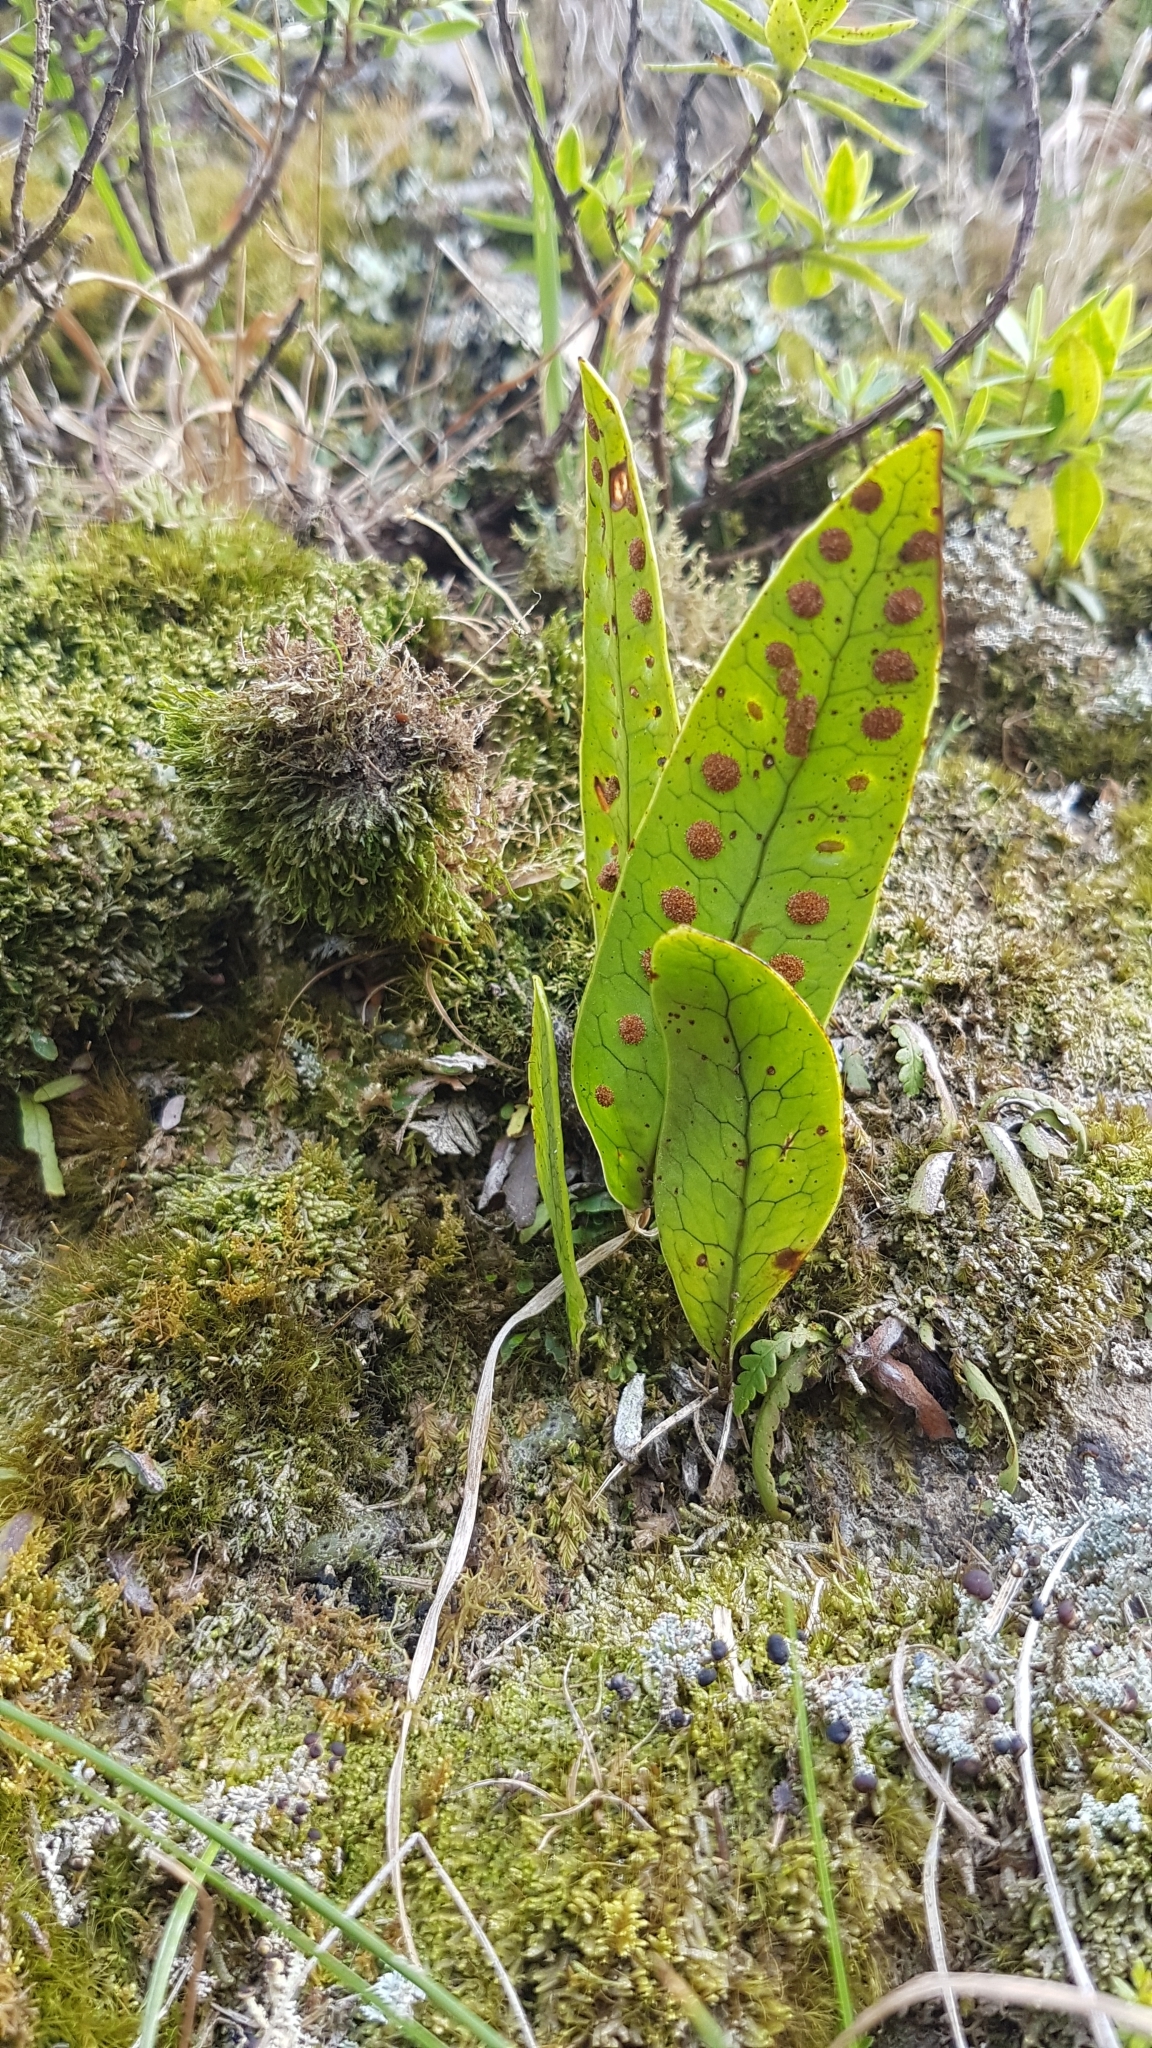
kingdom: Plantae
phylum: Tracheophyta
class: Polypodiopsida
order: Polypodiales
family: Polypodiaceae
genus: Lecanopteris
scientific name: Lecanopteris pustulata
